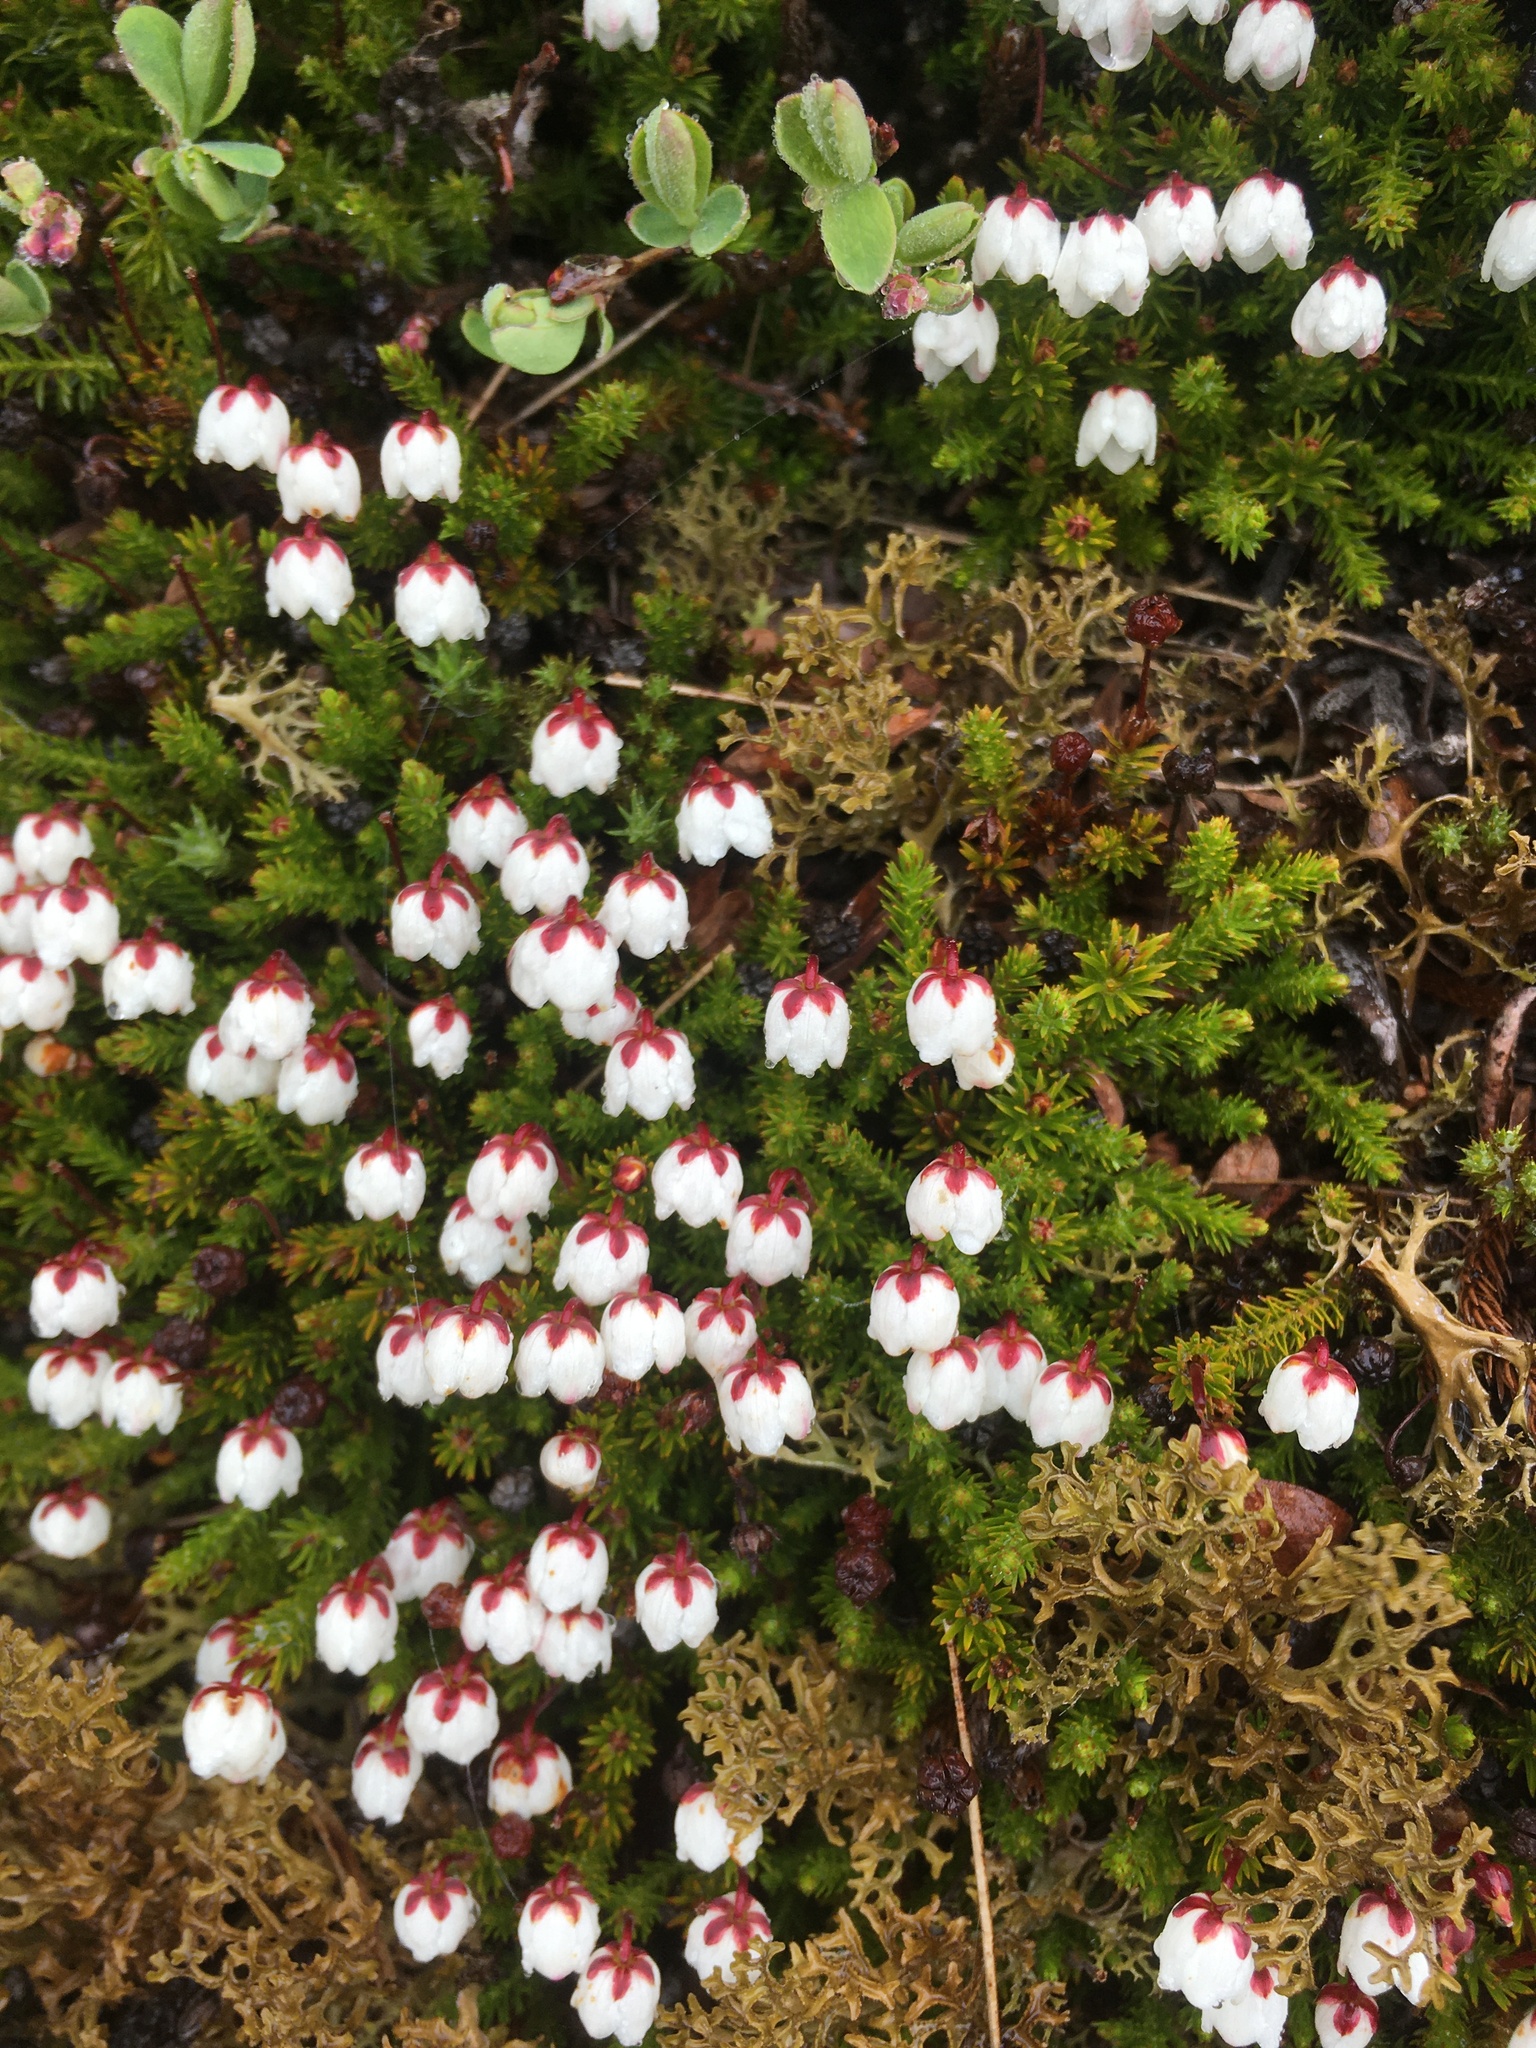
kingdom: Plantae
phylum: Tracheophyta
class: Magnoliopsida
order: Ericales
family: Ericaceae
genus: Harrimanella
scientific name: Harrimanella hypnoides
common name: Moss bell heather
